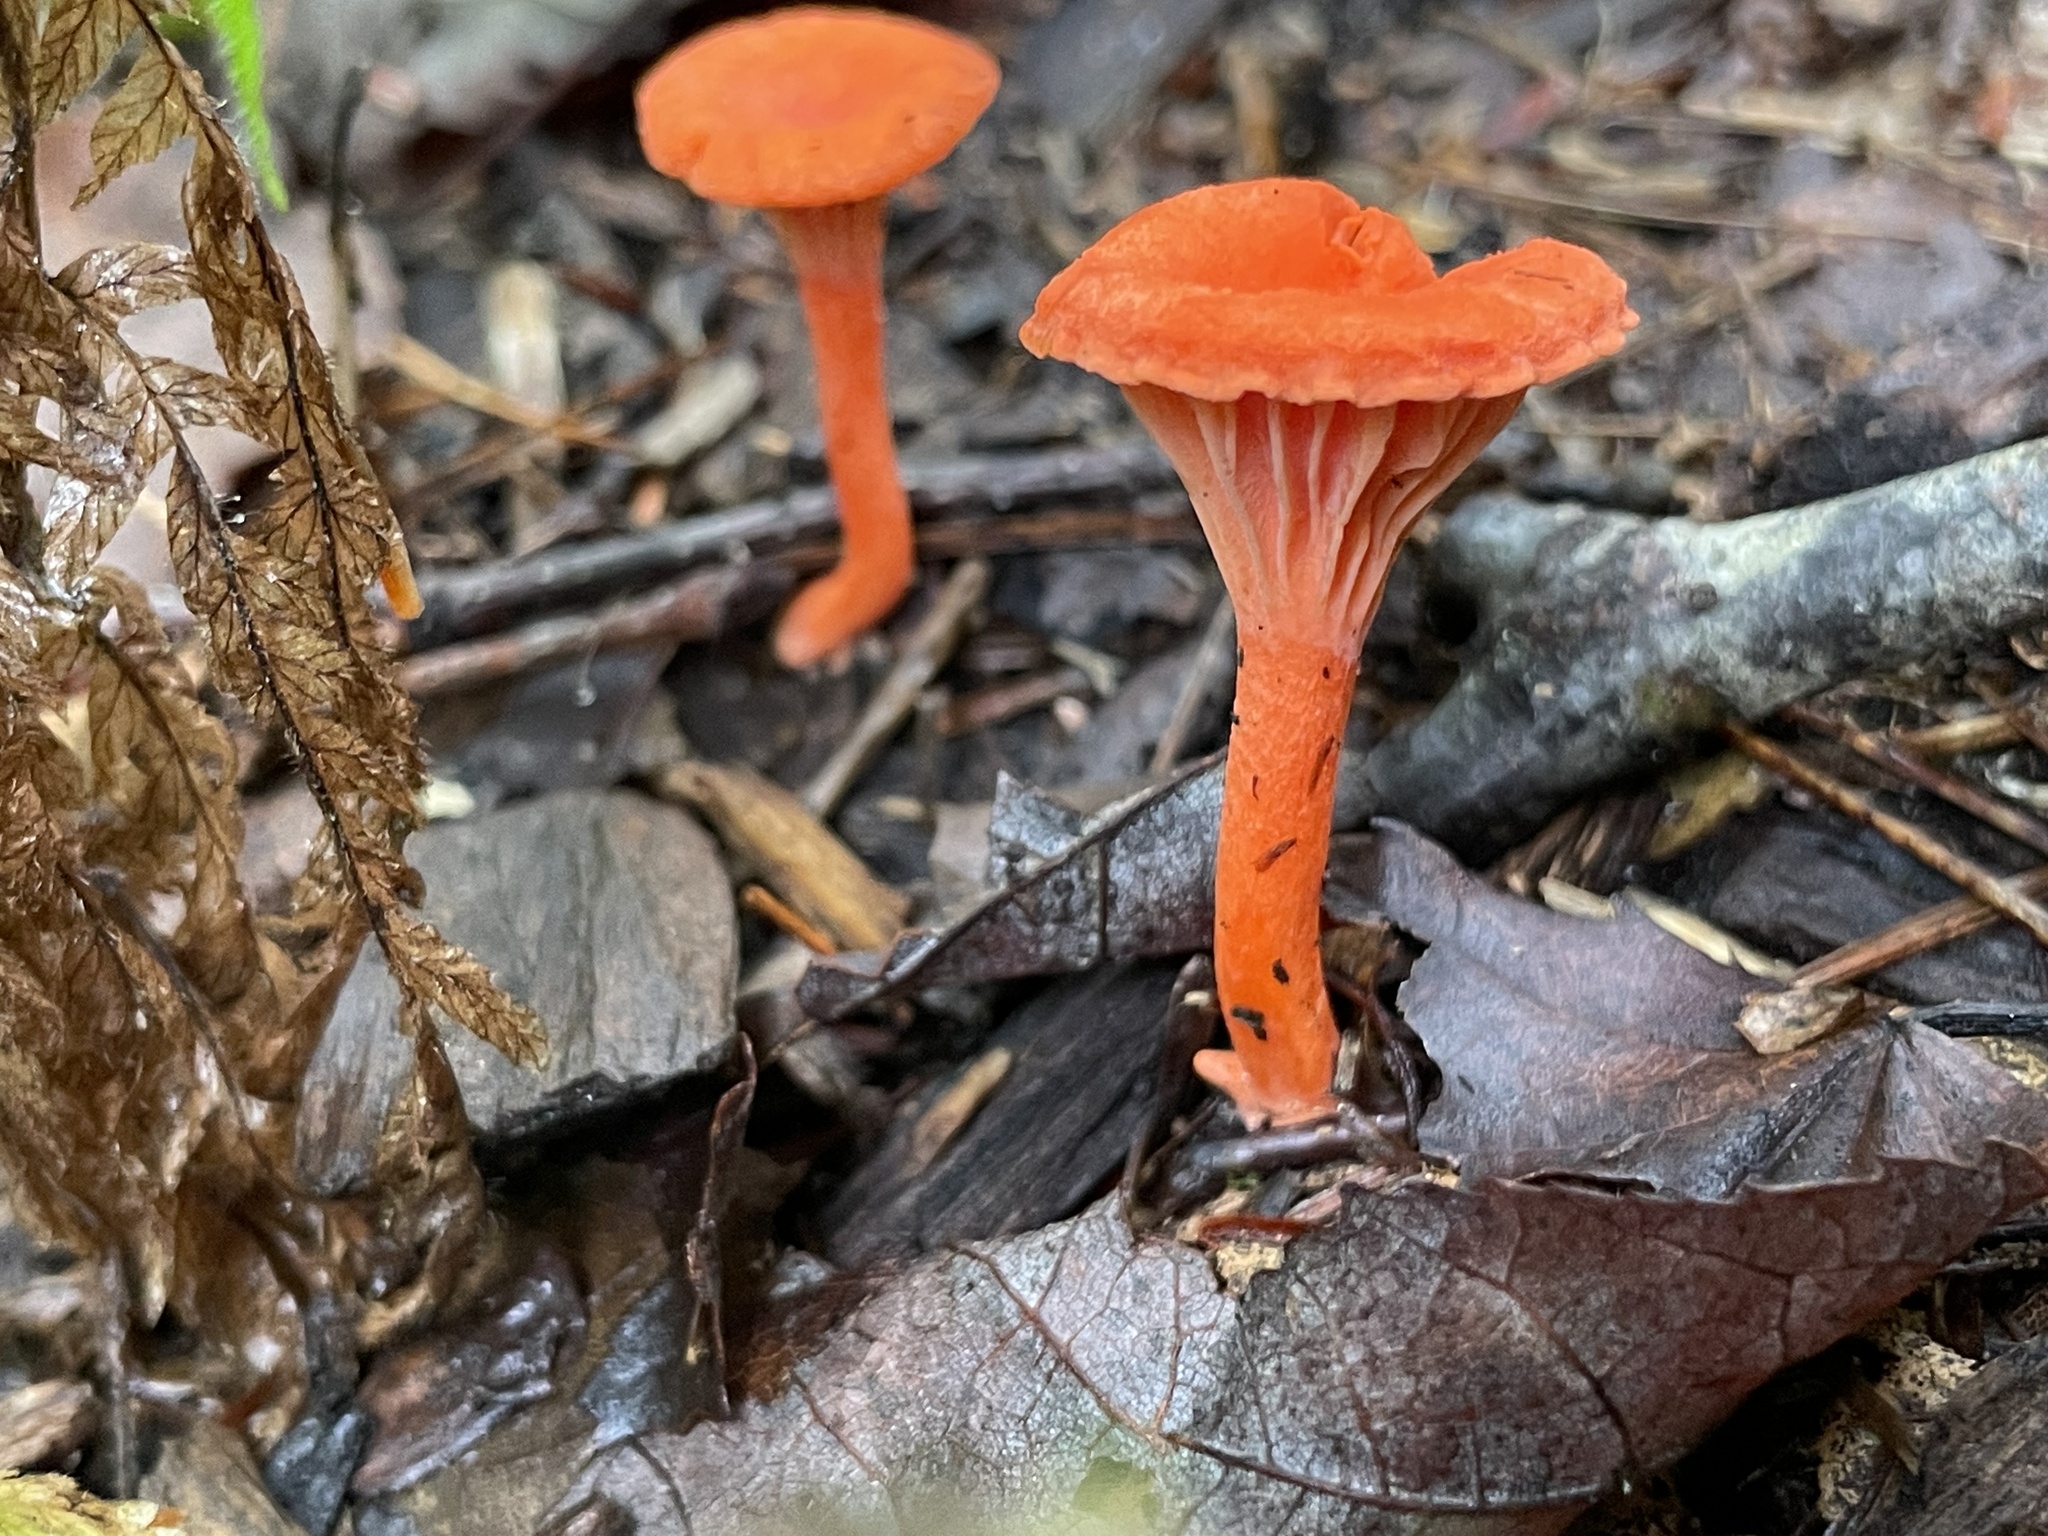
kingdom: Fungi
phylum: Basidiomycota
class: Agaricomycetes
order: Cantharellales
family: Hydnaceae
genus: Cantharellus
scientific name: Cantharellus cinnabarinus
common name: Cinnabar chanterelle
